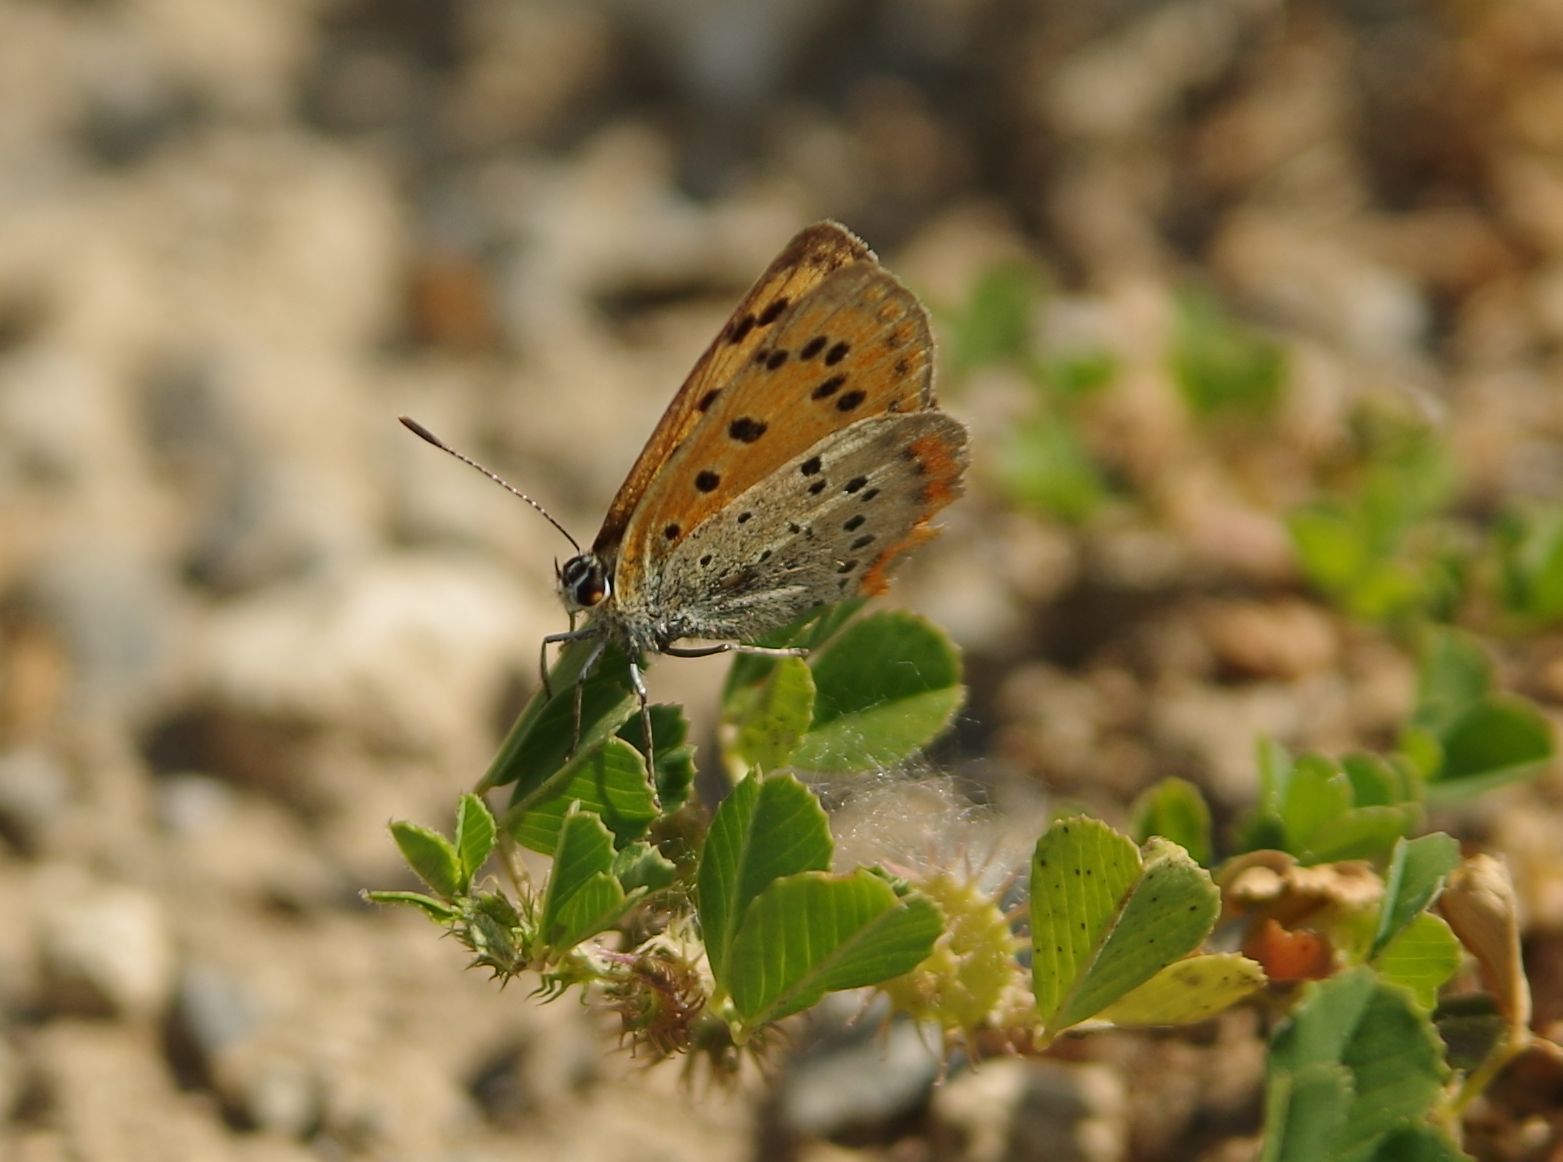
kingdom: Animalia
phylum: Arthropoda
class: Insecta
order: Lepidoptera
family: Lycaenidae
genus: Polyommatus
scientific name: Polyommatus ottomanus
